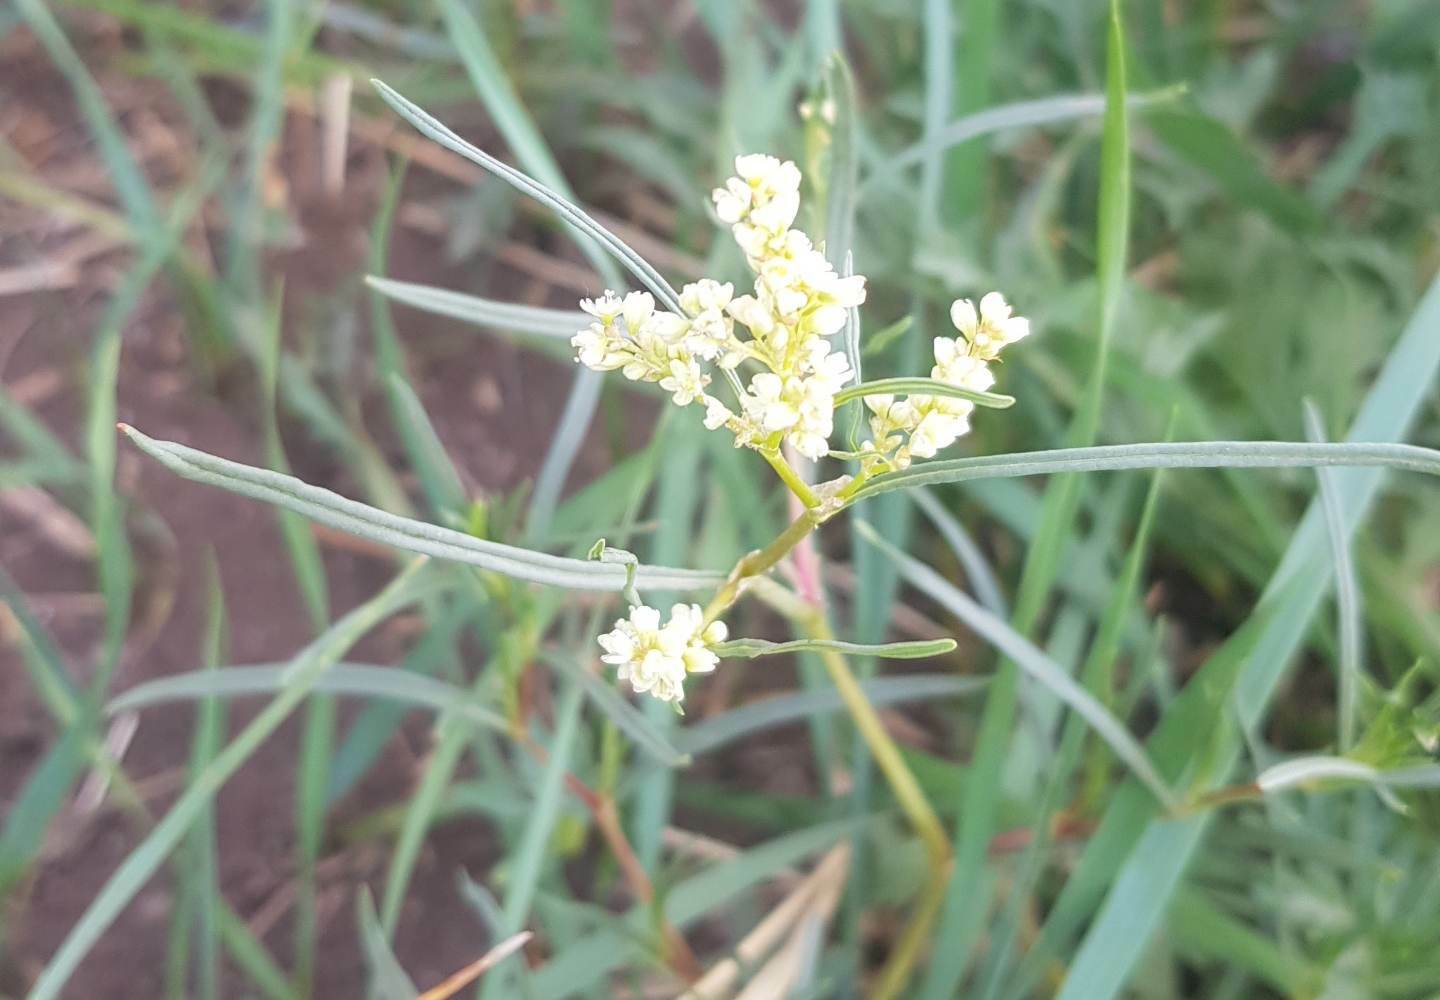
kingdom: Plantae
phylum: Tracheophyta
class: Magnoliopsida
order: Caryophyllales
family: Polygonaceae
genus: Persicaria
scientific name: Persicaria angustifolia
